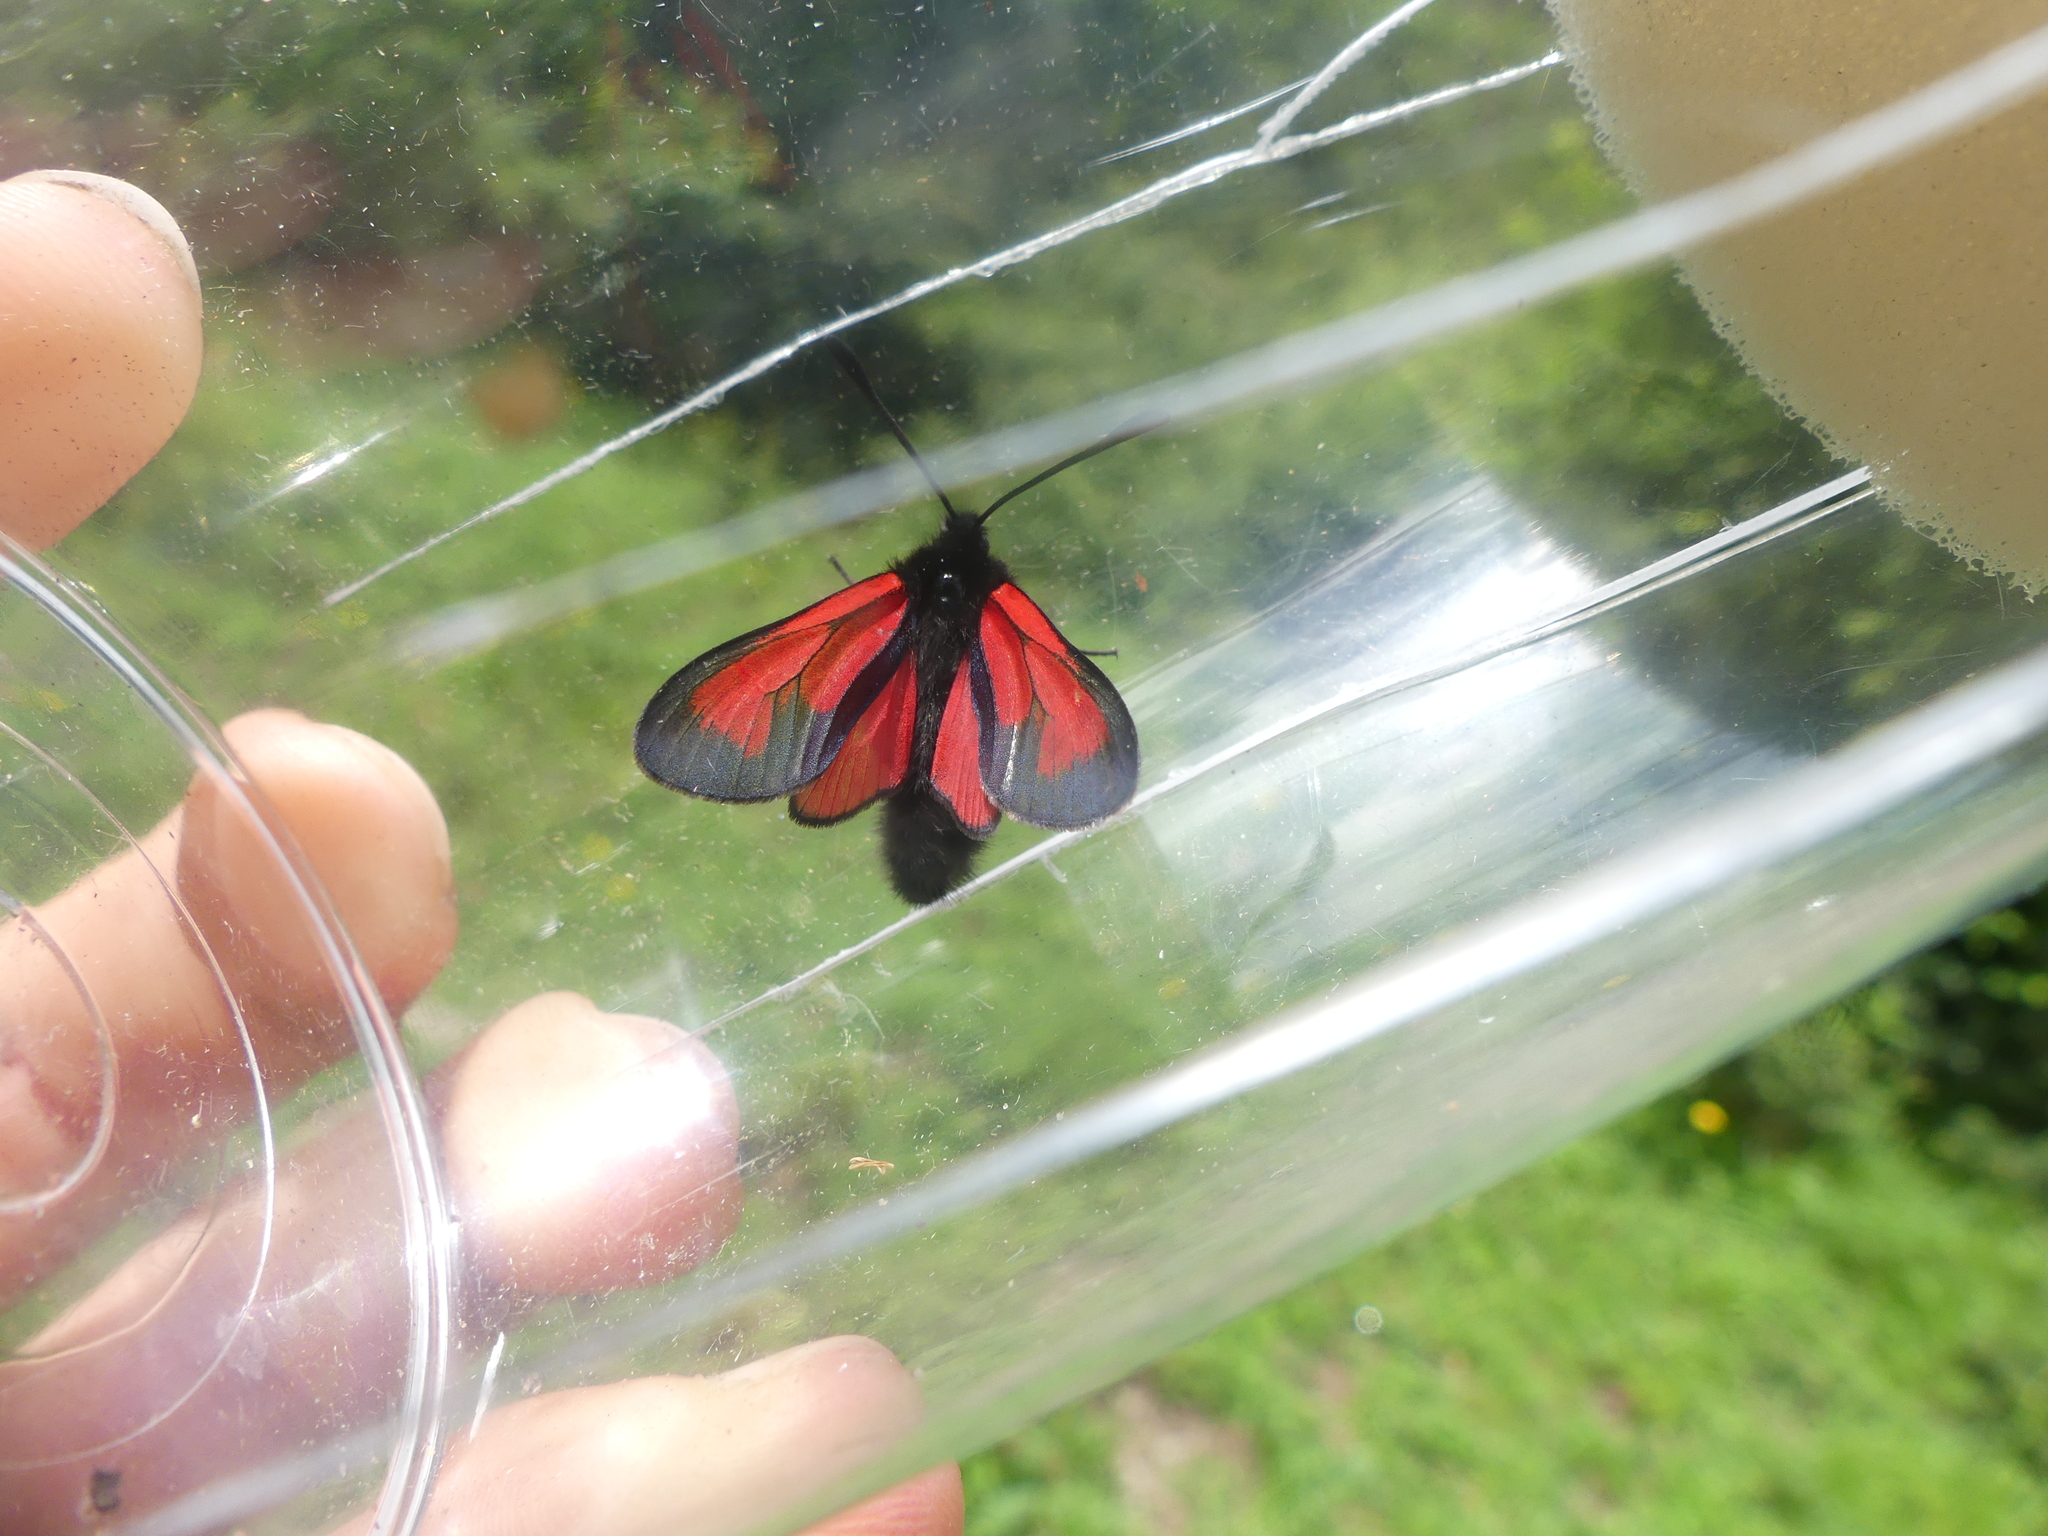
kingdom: Animalia
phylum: Arthropoda
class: Insecta
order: Lepidoptera
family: Zygaenidae
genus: Zygaena
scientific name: Zygaena purpuralis
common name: Transparent burnet
